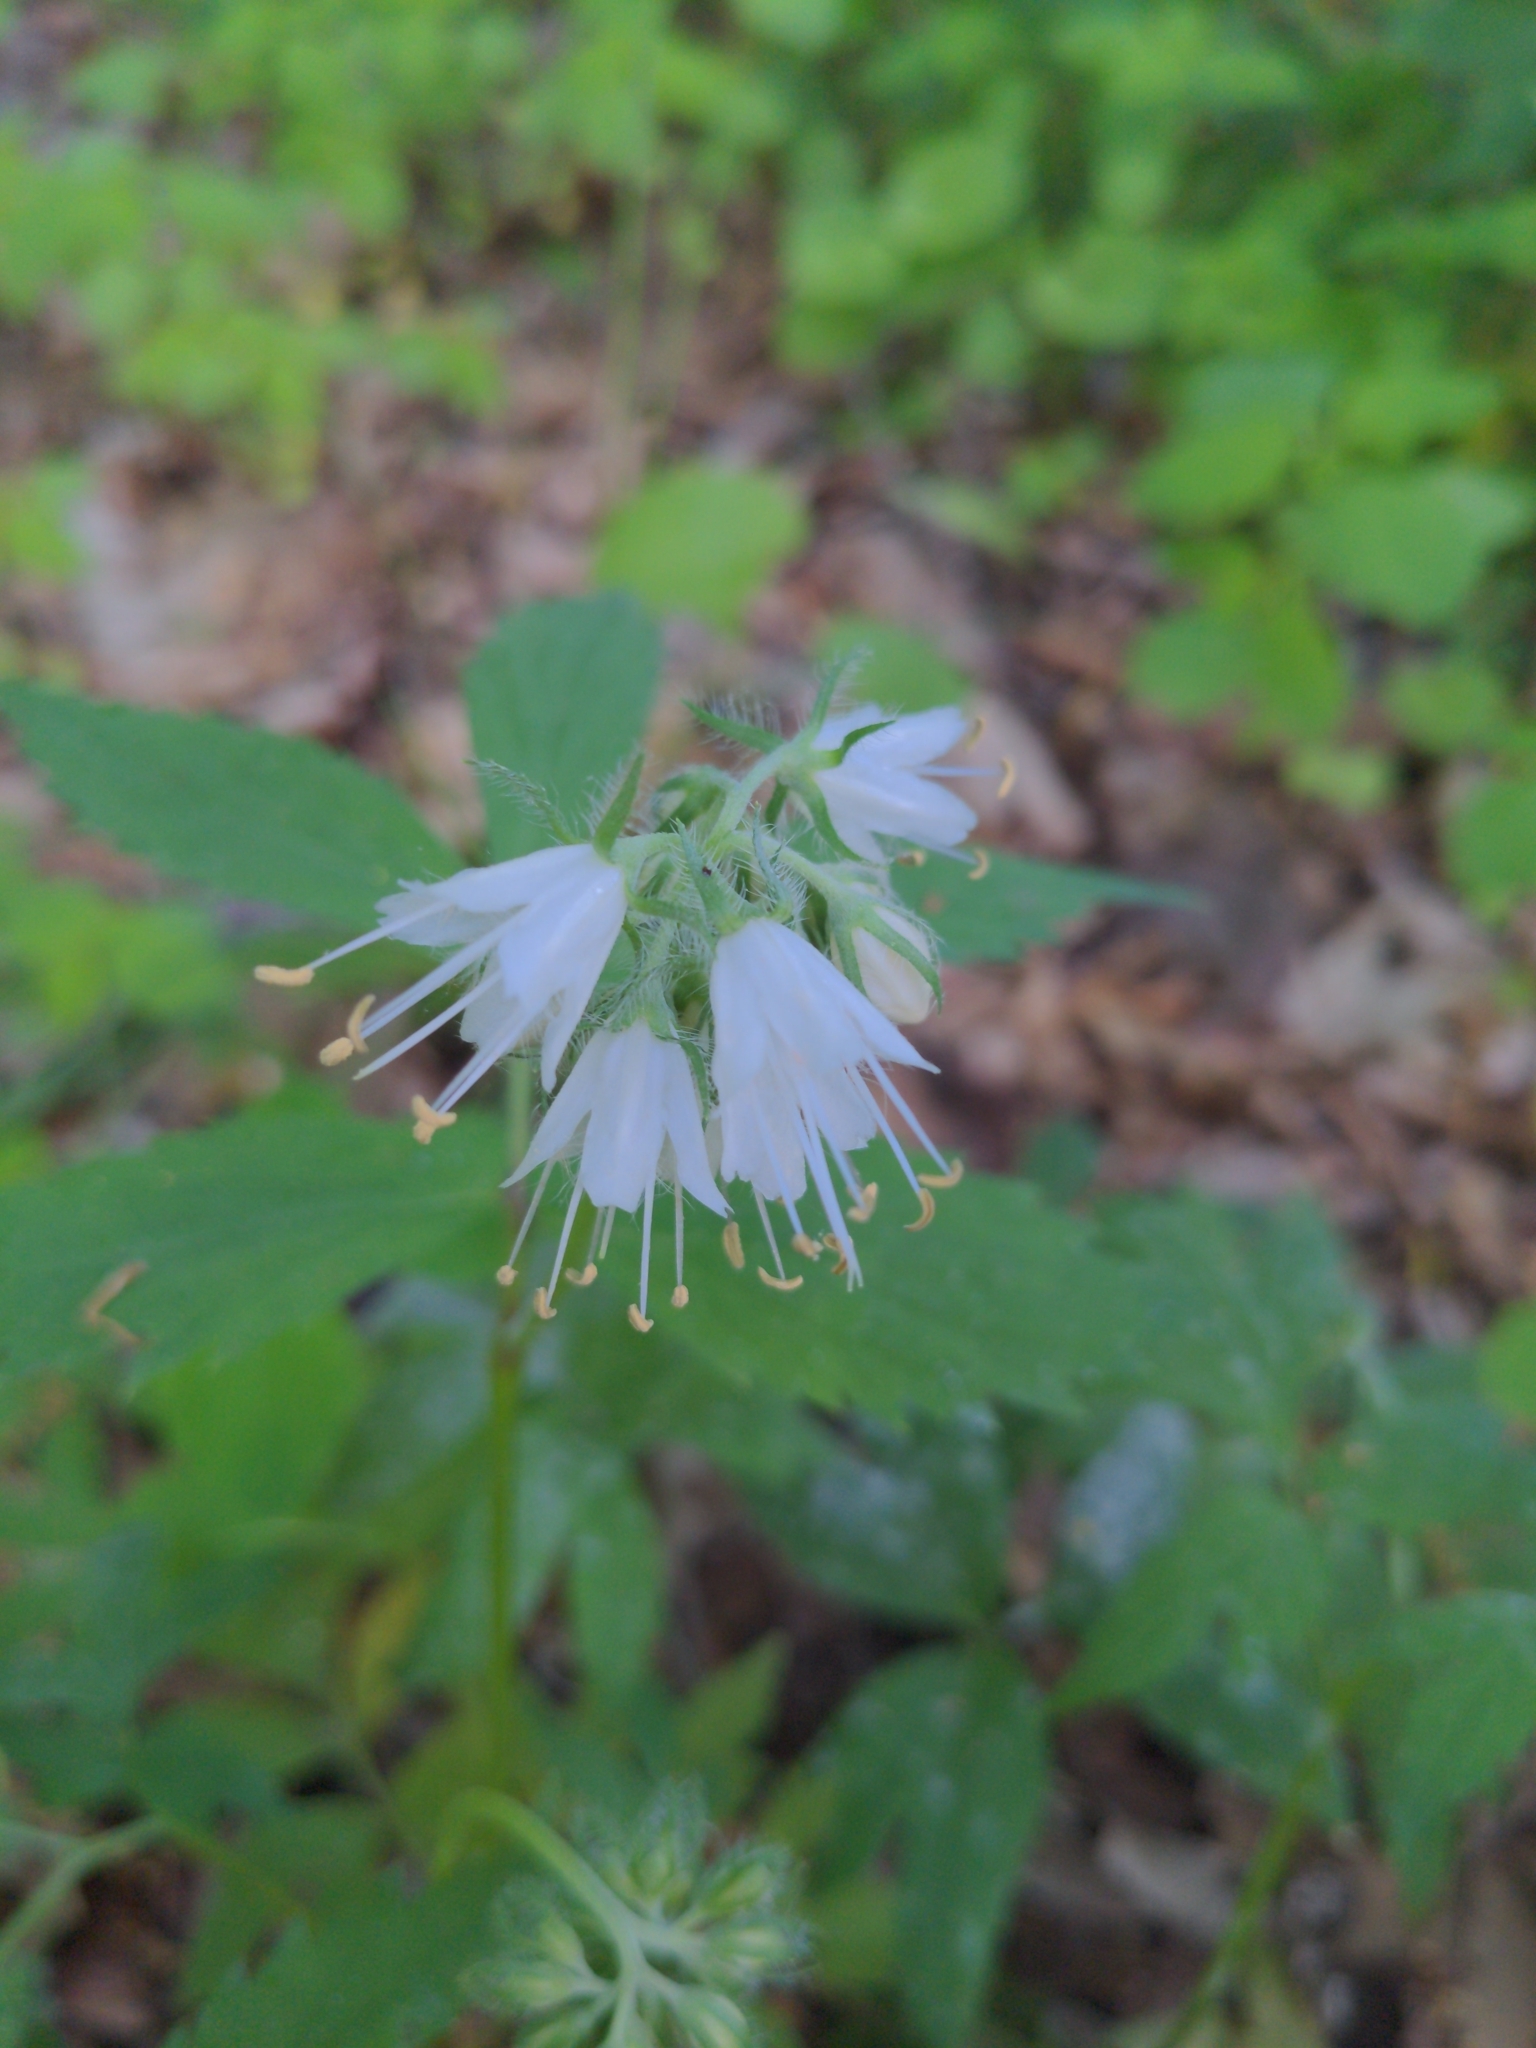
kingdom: Plantae
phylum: Tracheophyta
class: Magnoliopsida
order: Boraginales
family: Hydrophyllaceae
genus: Hydrophyllum
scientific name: Hydrophyllum virginianum
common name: Virginia waterleaf
